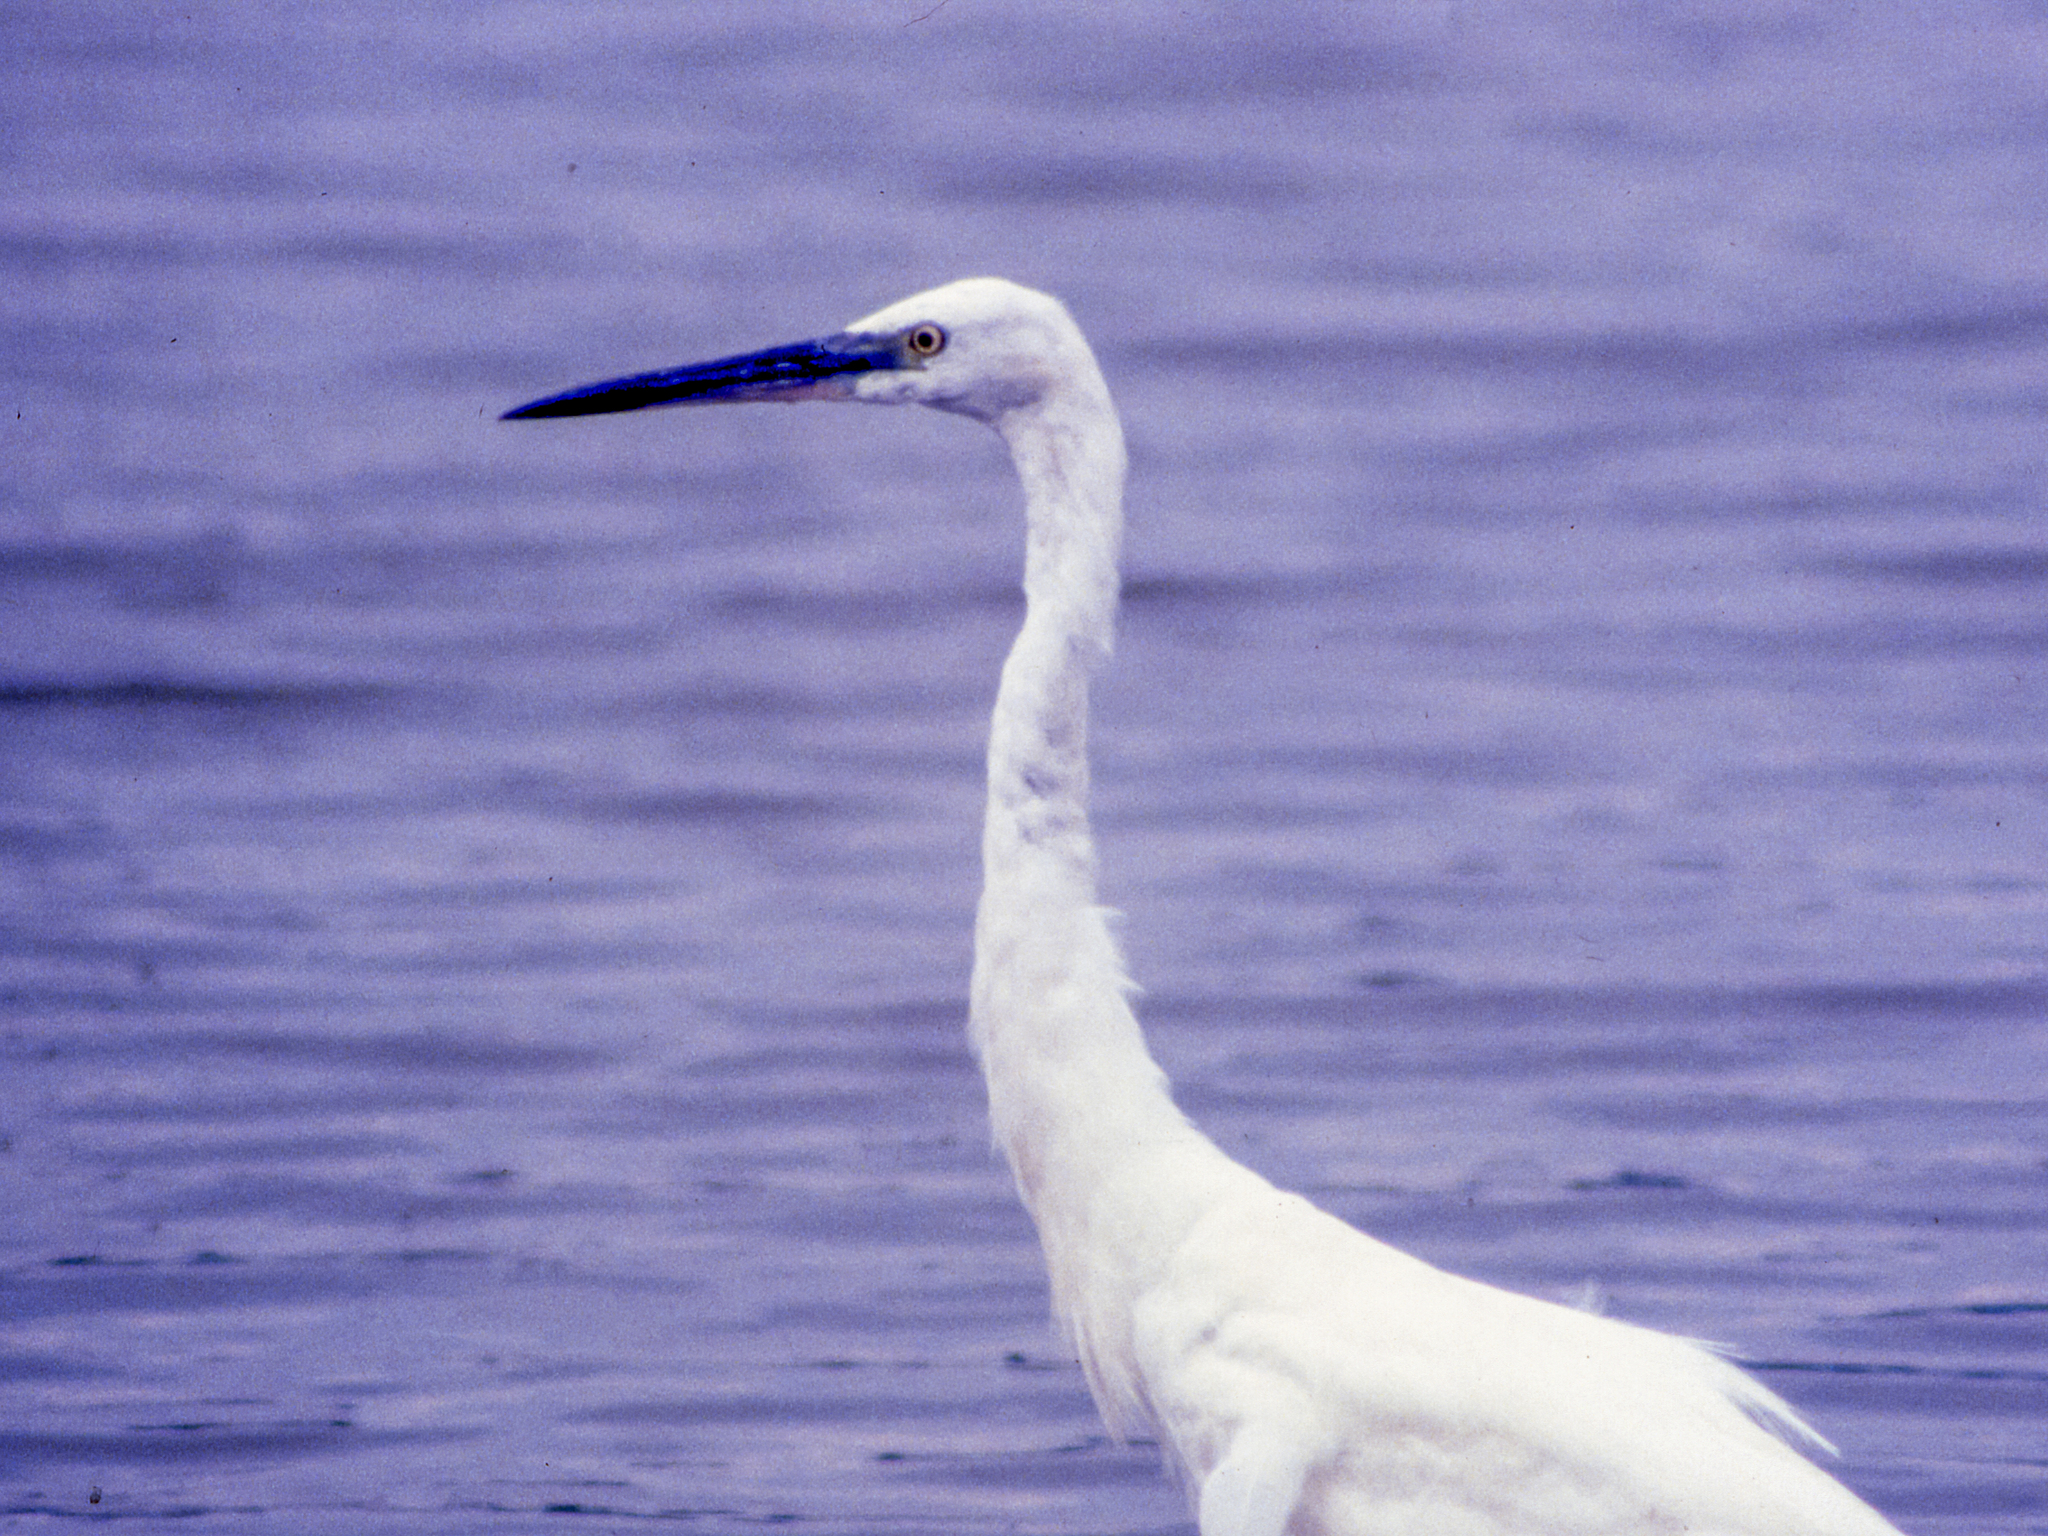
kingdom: Animalia
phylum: Chordata
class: Aves
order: Pelecaniformes
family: Ardeidae
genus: Egretta
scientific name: Egretta garzetta
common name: Little egret
